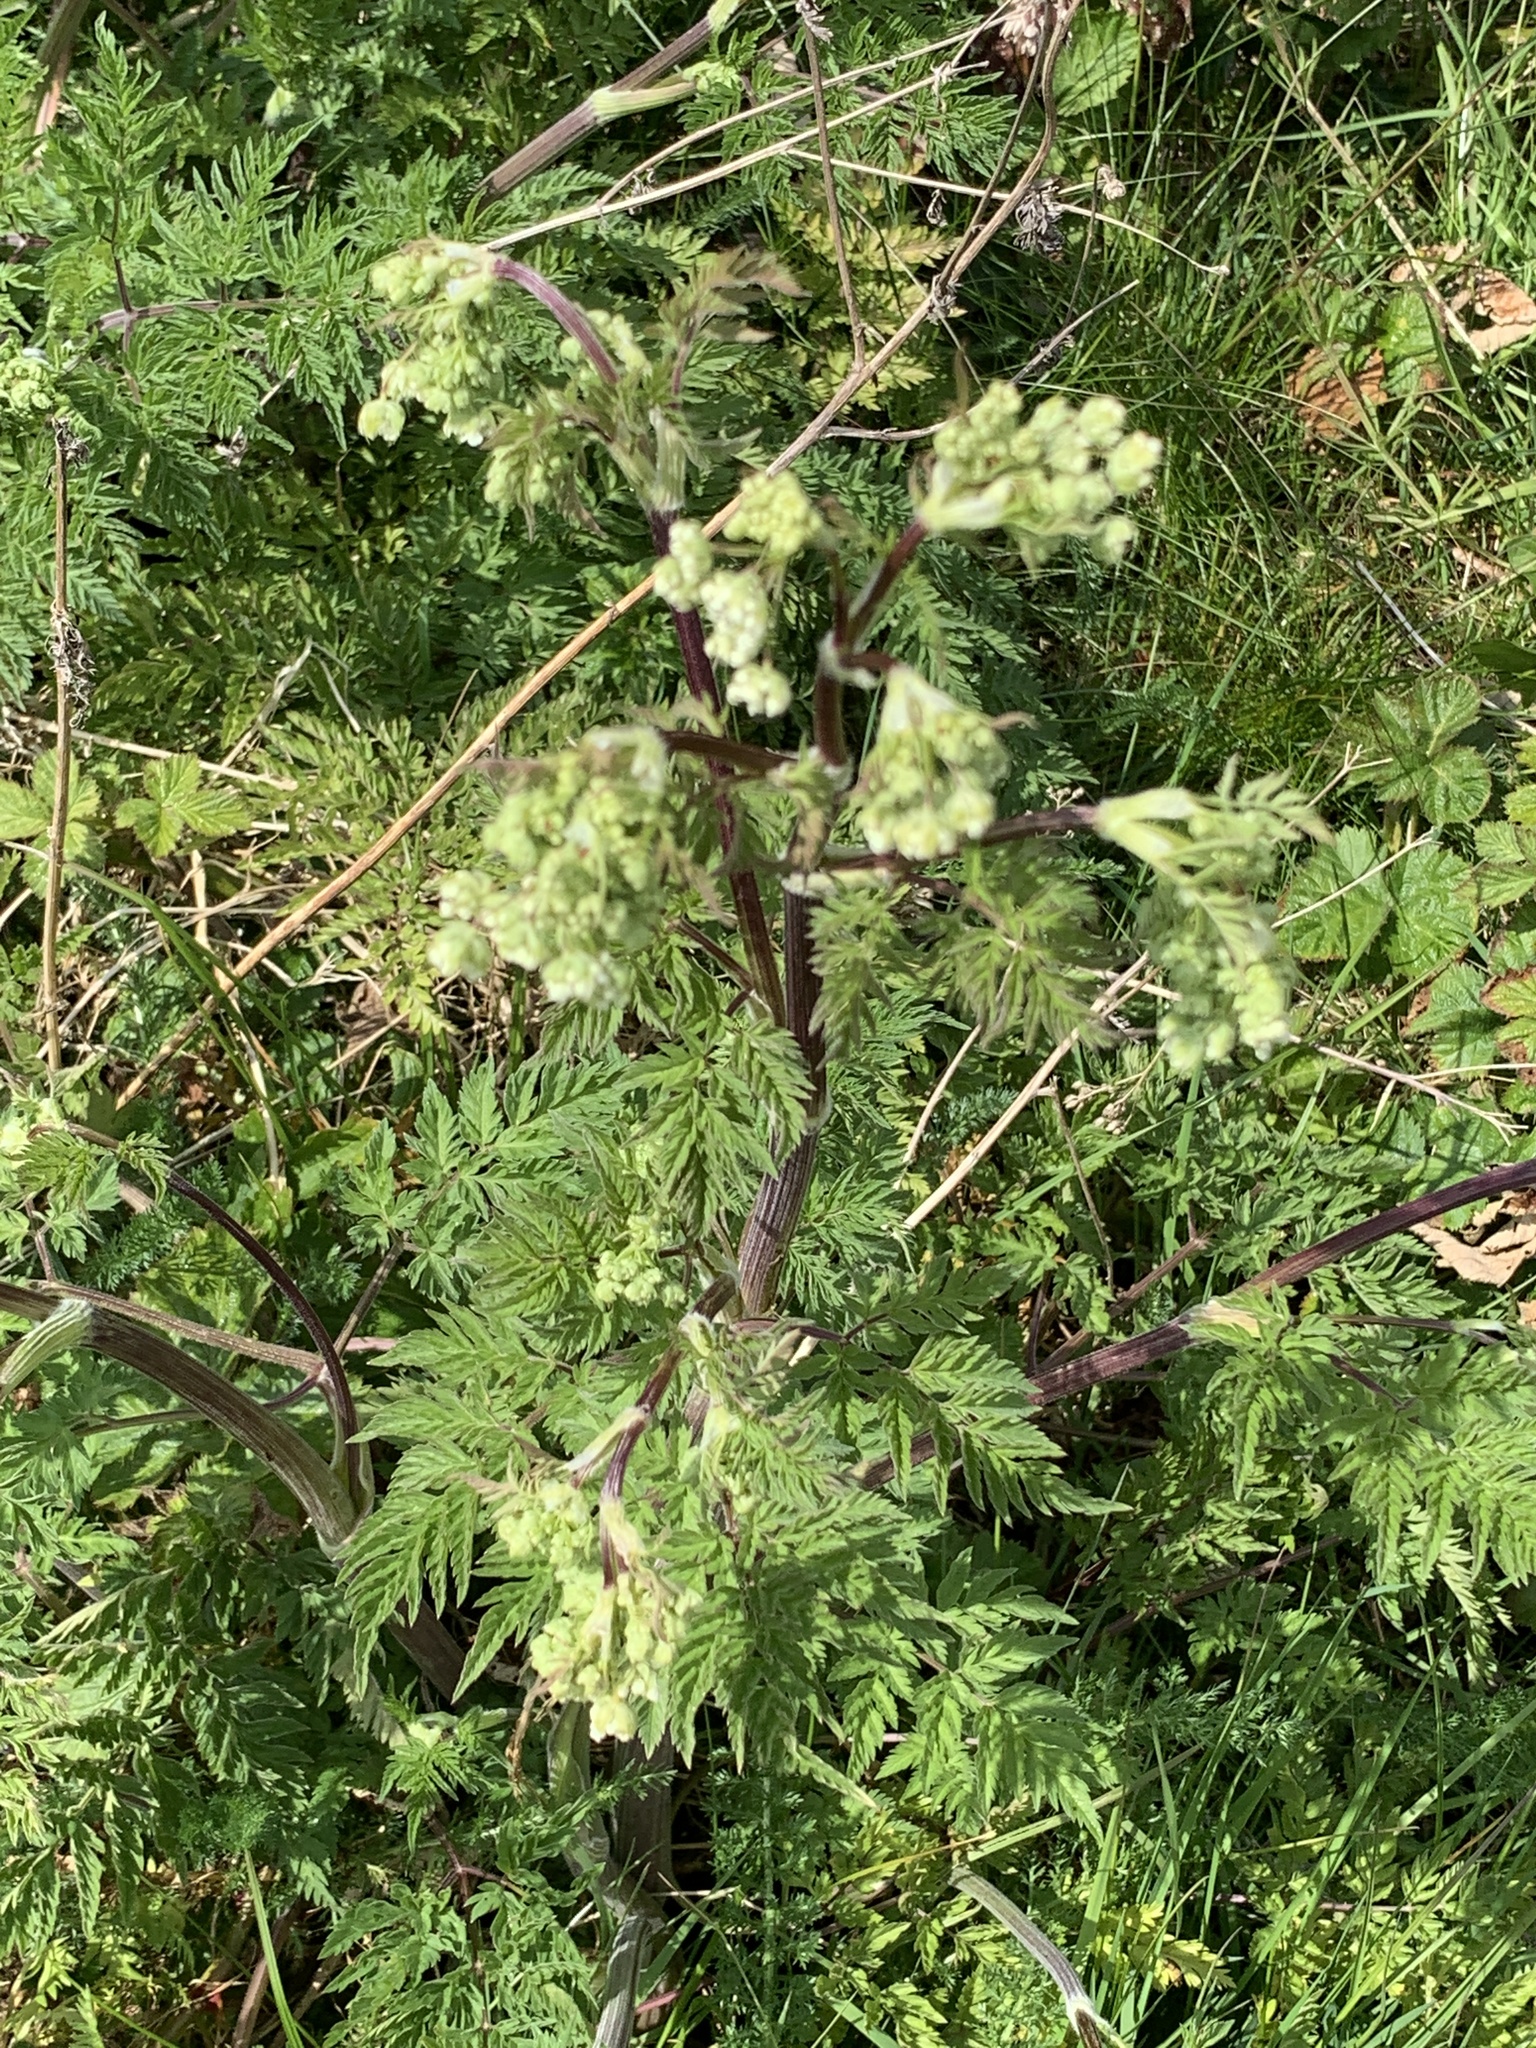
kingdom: Plantae
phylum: Tracheophyta
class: Magnoliopsida
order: Apiales
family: Apiaceae
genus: Anthriscus
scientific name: Anthriscus sylvestris
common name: Cow parsley
